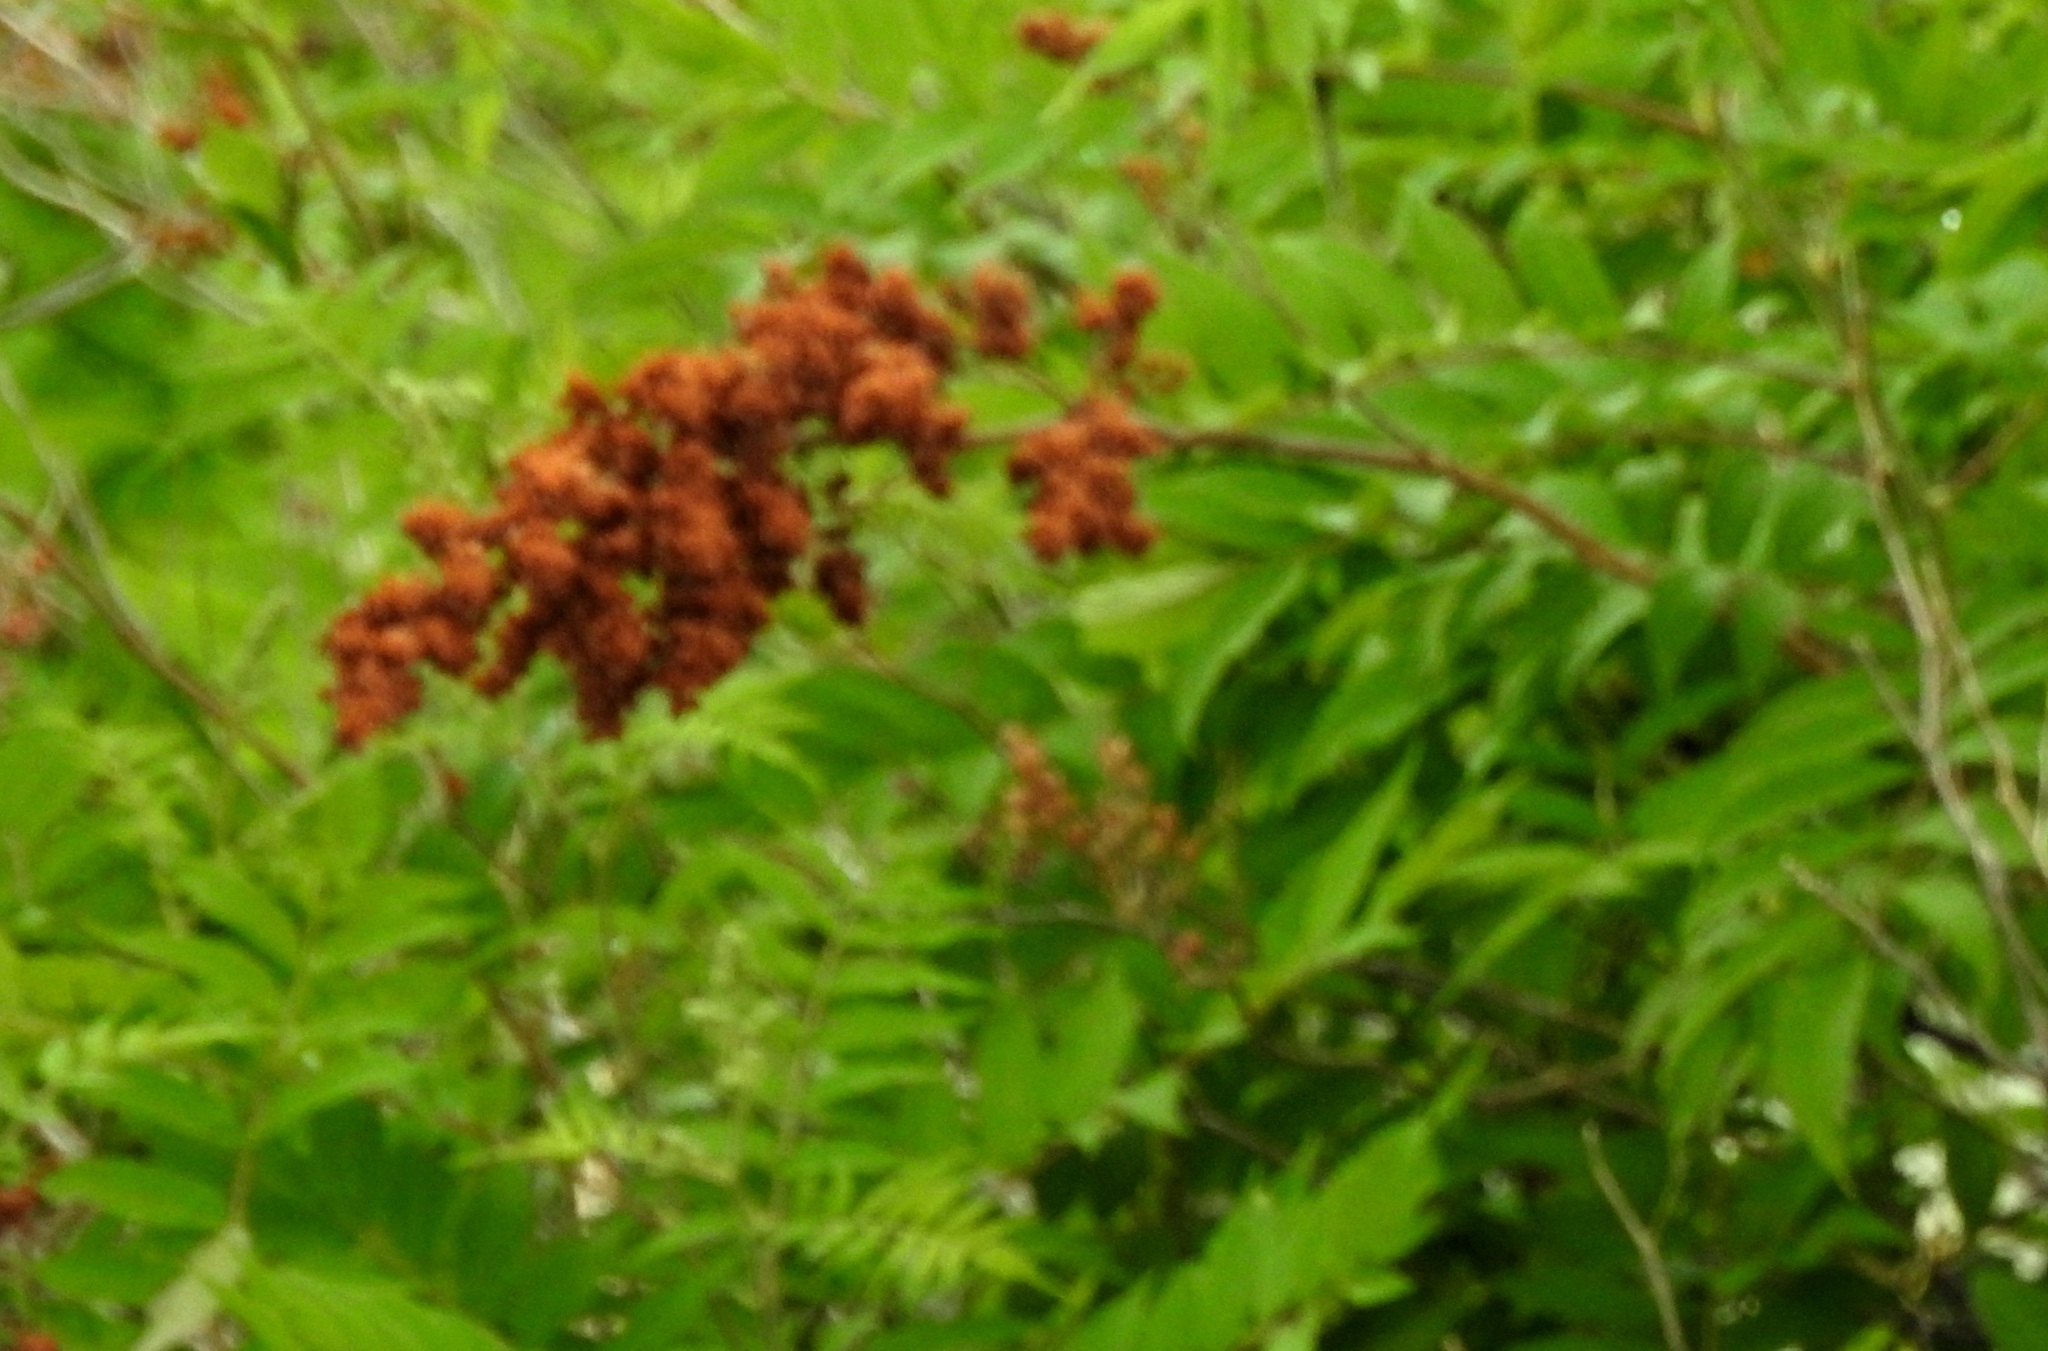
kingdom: Plantae
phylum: Tracheophyta
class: Magnoliopsida
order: Rosales
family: Rosaceae
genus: Sorbaria
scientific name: Sorbaria sorbifolia
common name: False spiraea
